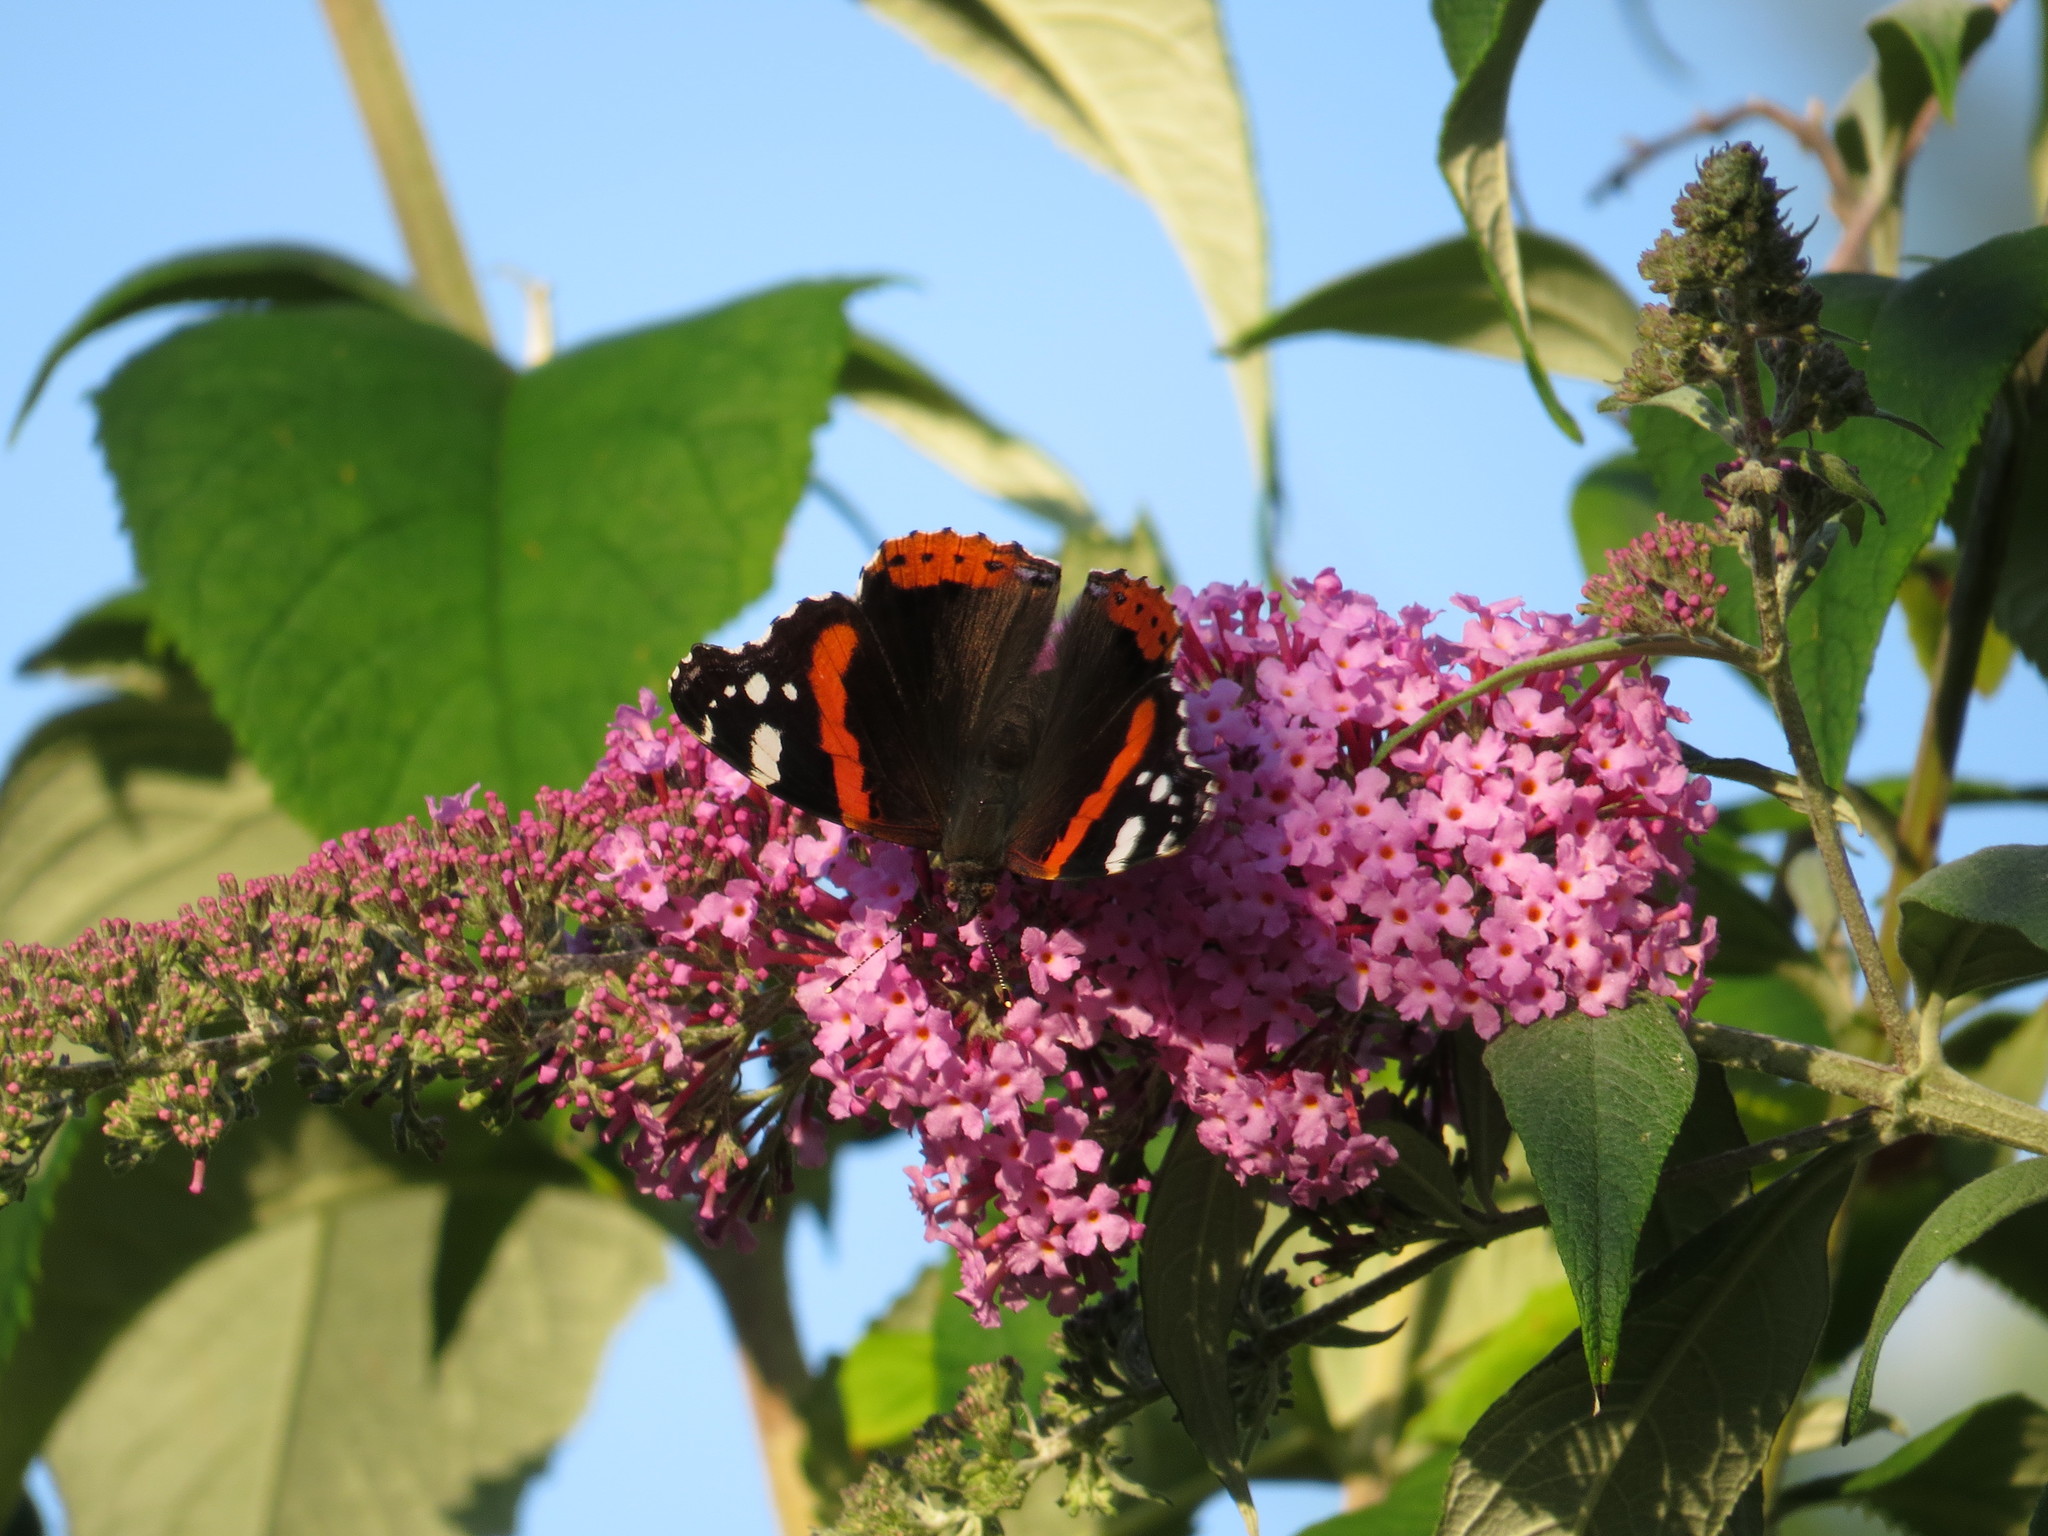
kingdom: Animalia
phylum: Arthropoda
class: Insecta
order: Lepidoptera
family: Nymphalidae
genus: Vanessa
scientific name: Vanessa atalanta
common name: Red admiral
